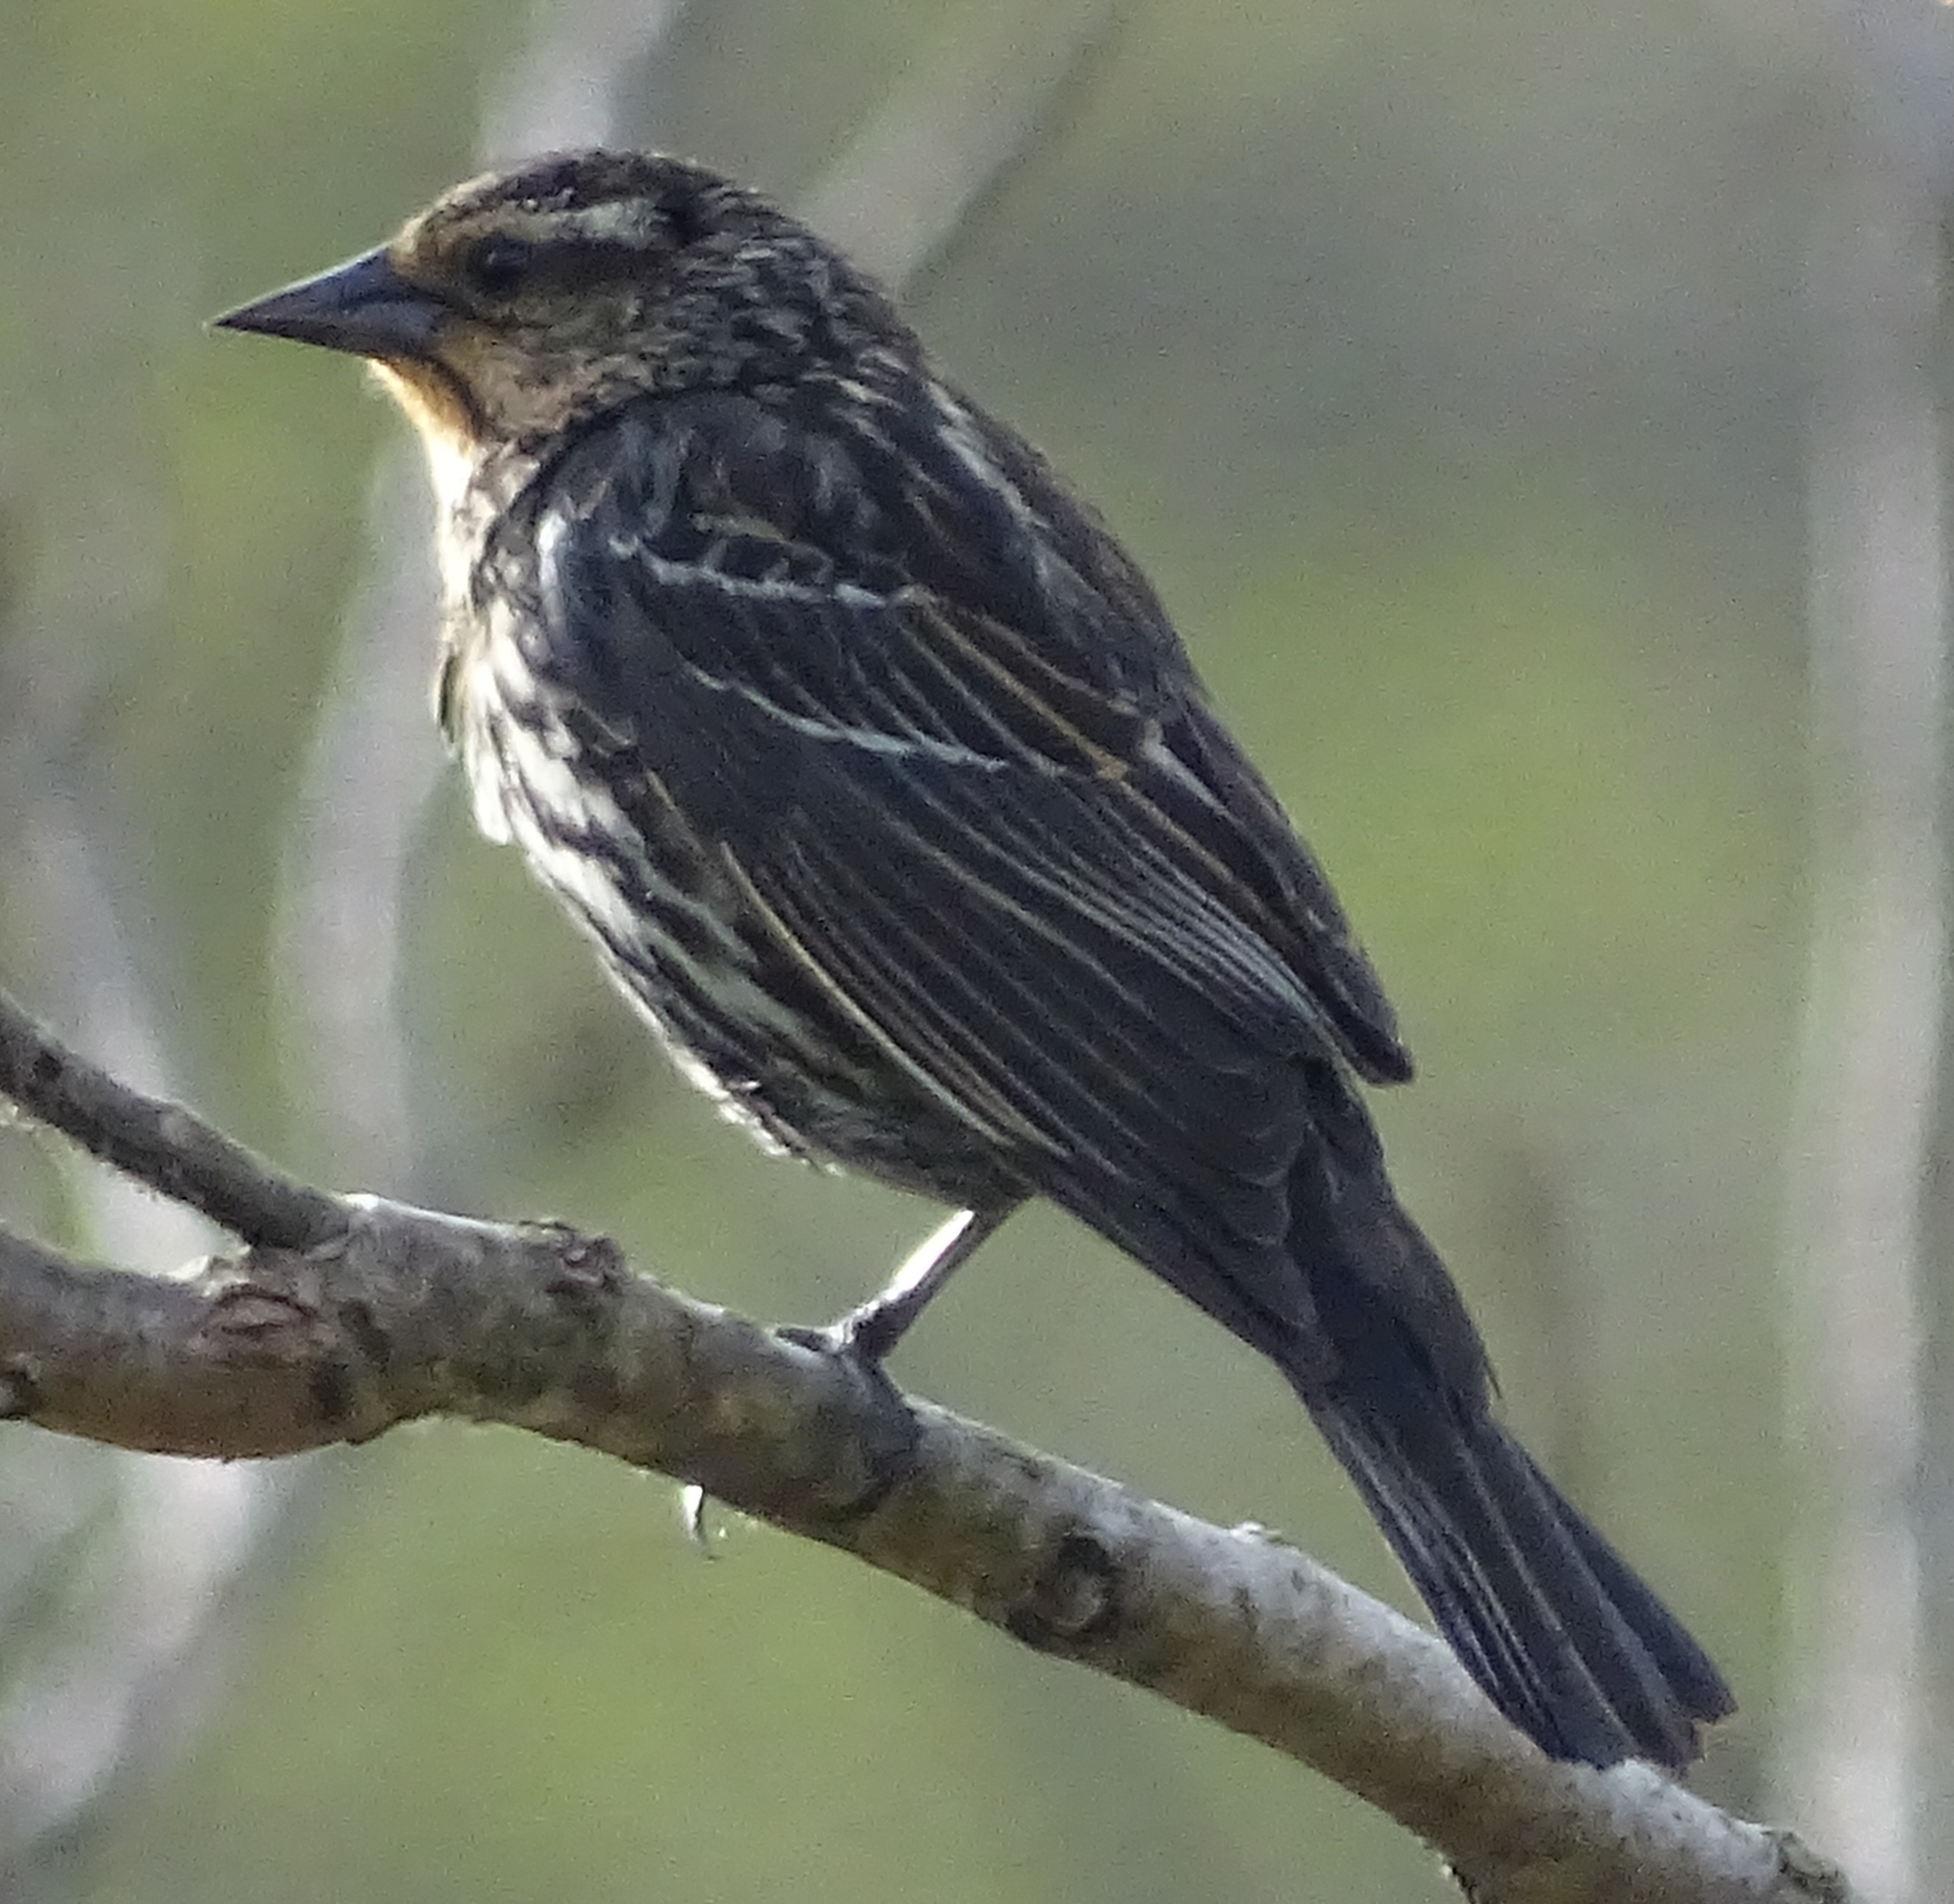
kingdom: Animalia
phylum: Chordata
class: Aves
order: Passeriformes
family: Icteridae
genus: Agelaius
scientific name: Agelaius phoeniceus
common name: Red-winged blackbird
